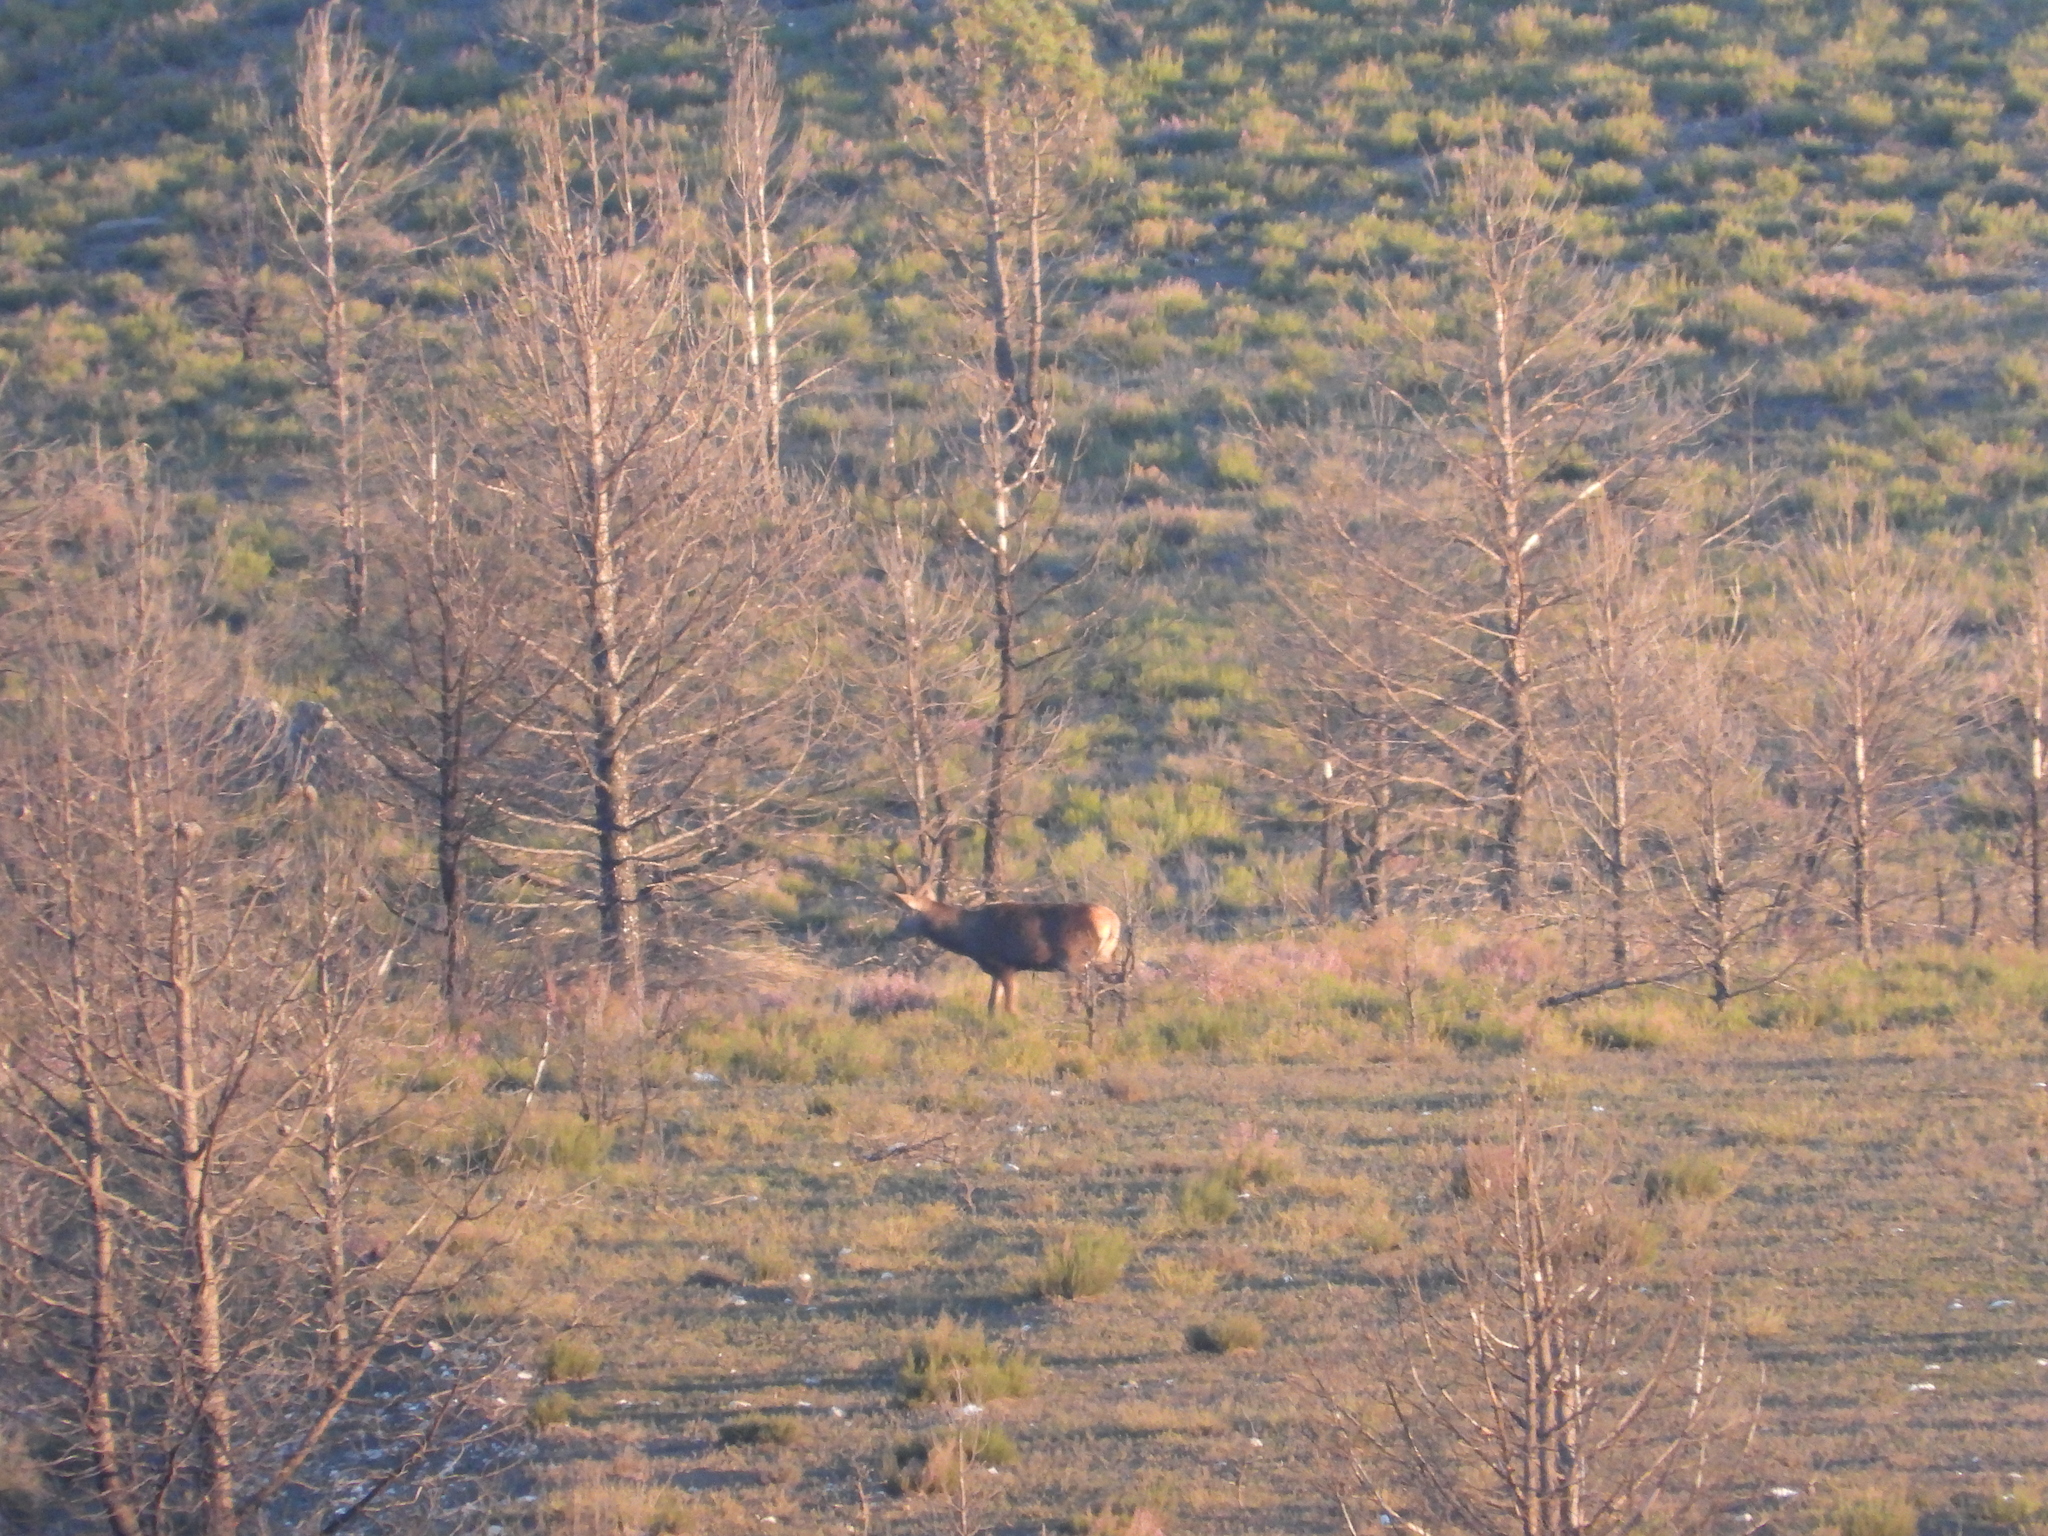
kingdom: Animalia
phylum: Chordata
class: Mammalia
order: Artiodactyla
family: Cervidae
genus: Cervus
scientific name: Cervus elaphus
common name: Red deer
